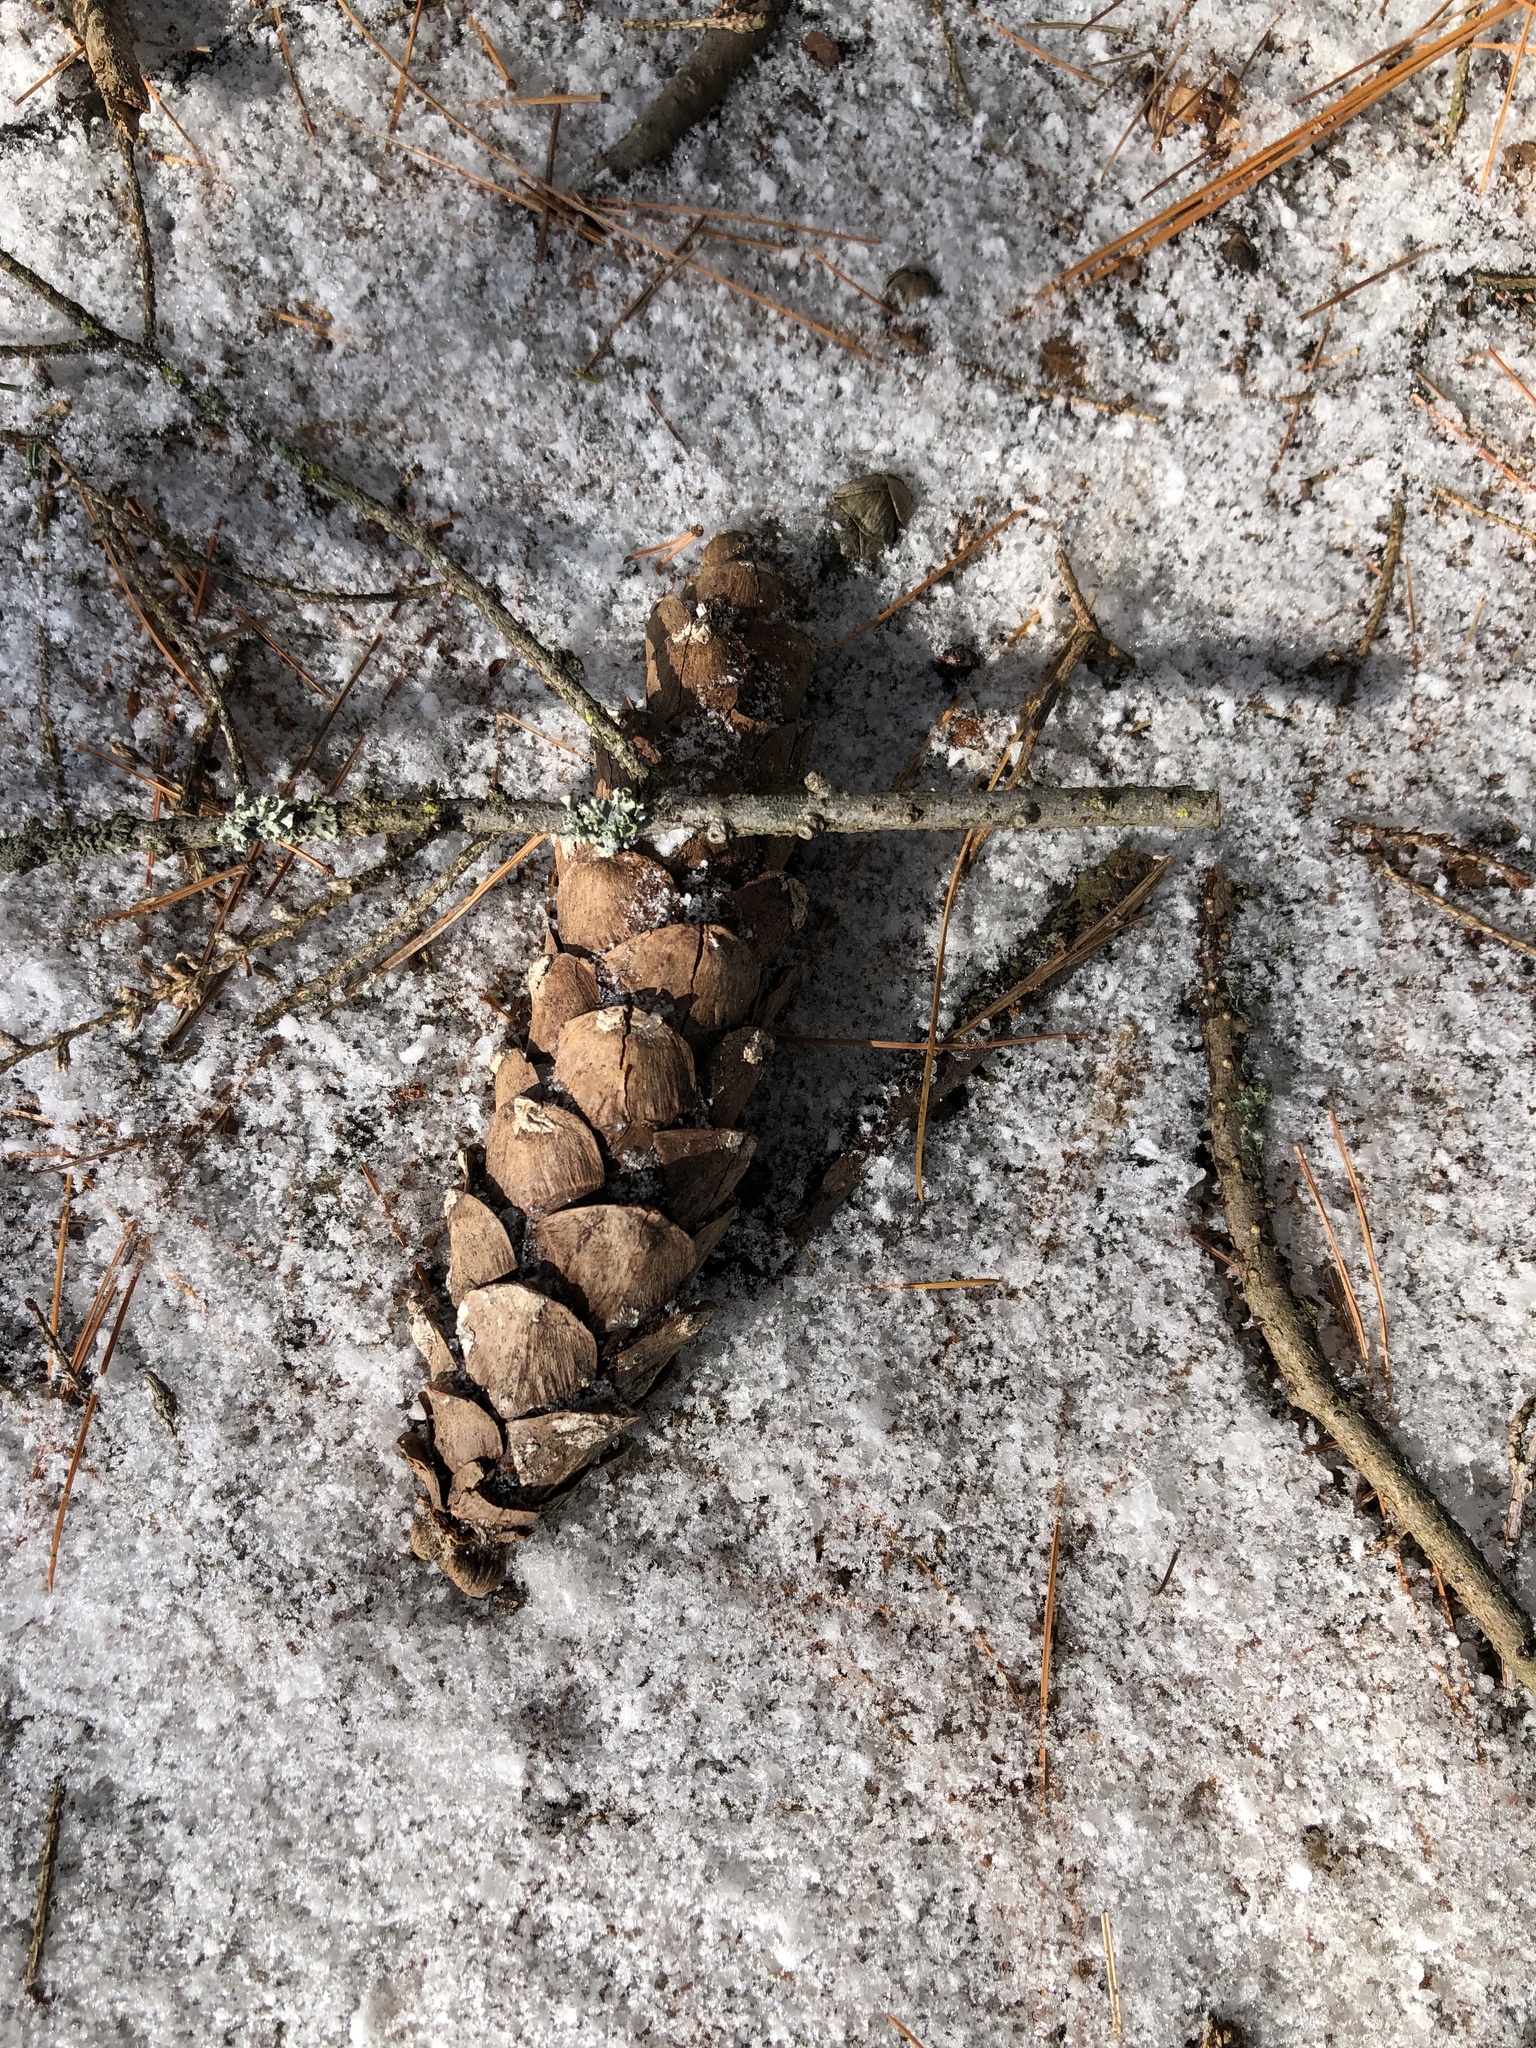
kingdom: Plantae
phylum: Tracheophyta
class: Pinopsida
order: Pinales
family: Pinaceae
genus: Pinus
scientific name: Pinus strobus
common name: Weymouth pine
